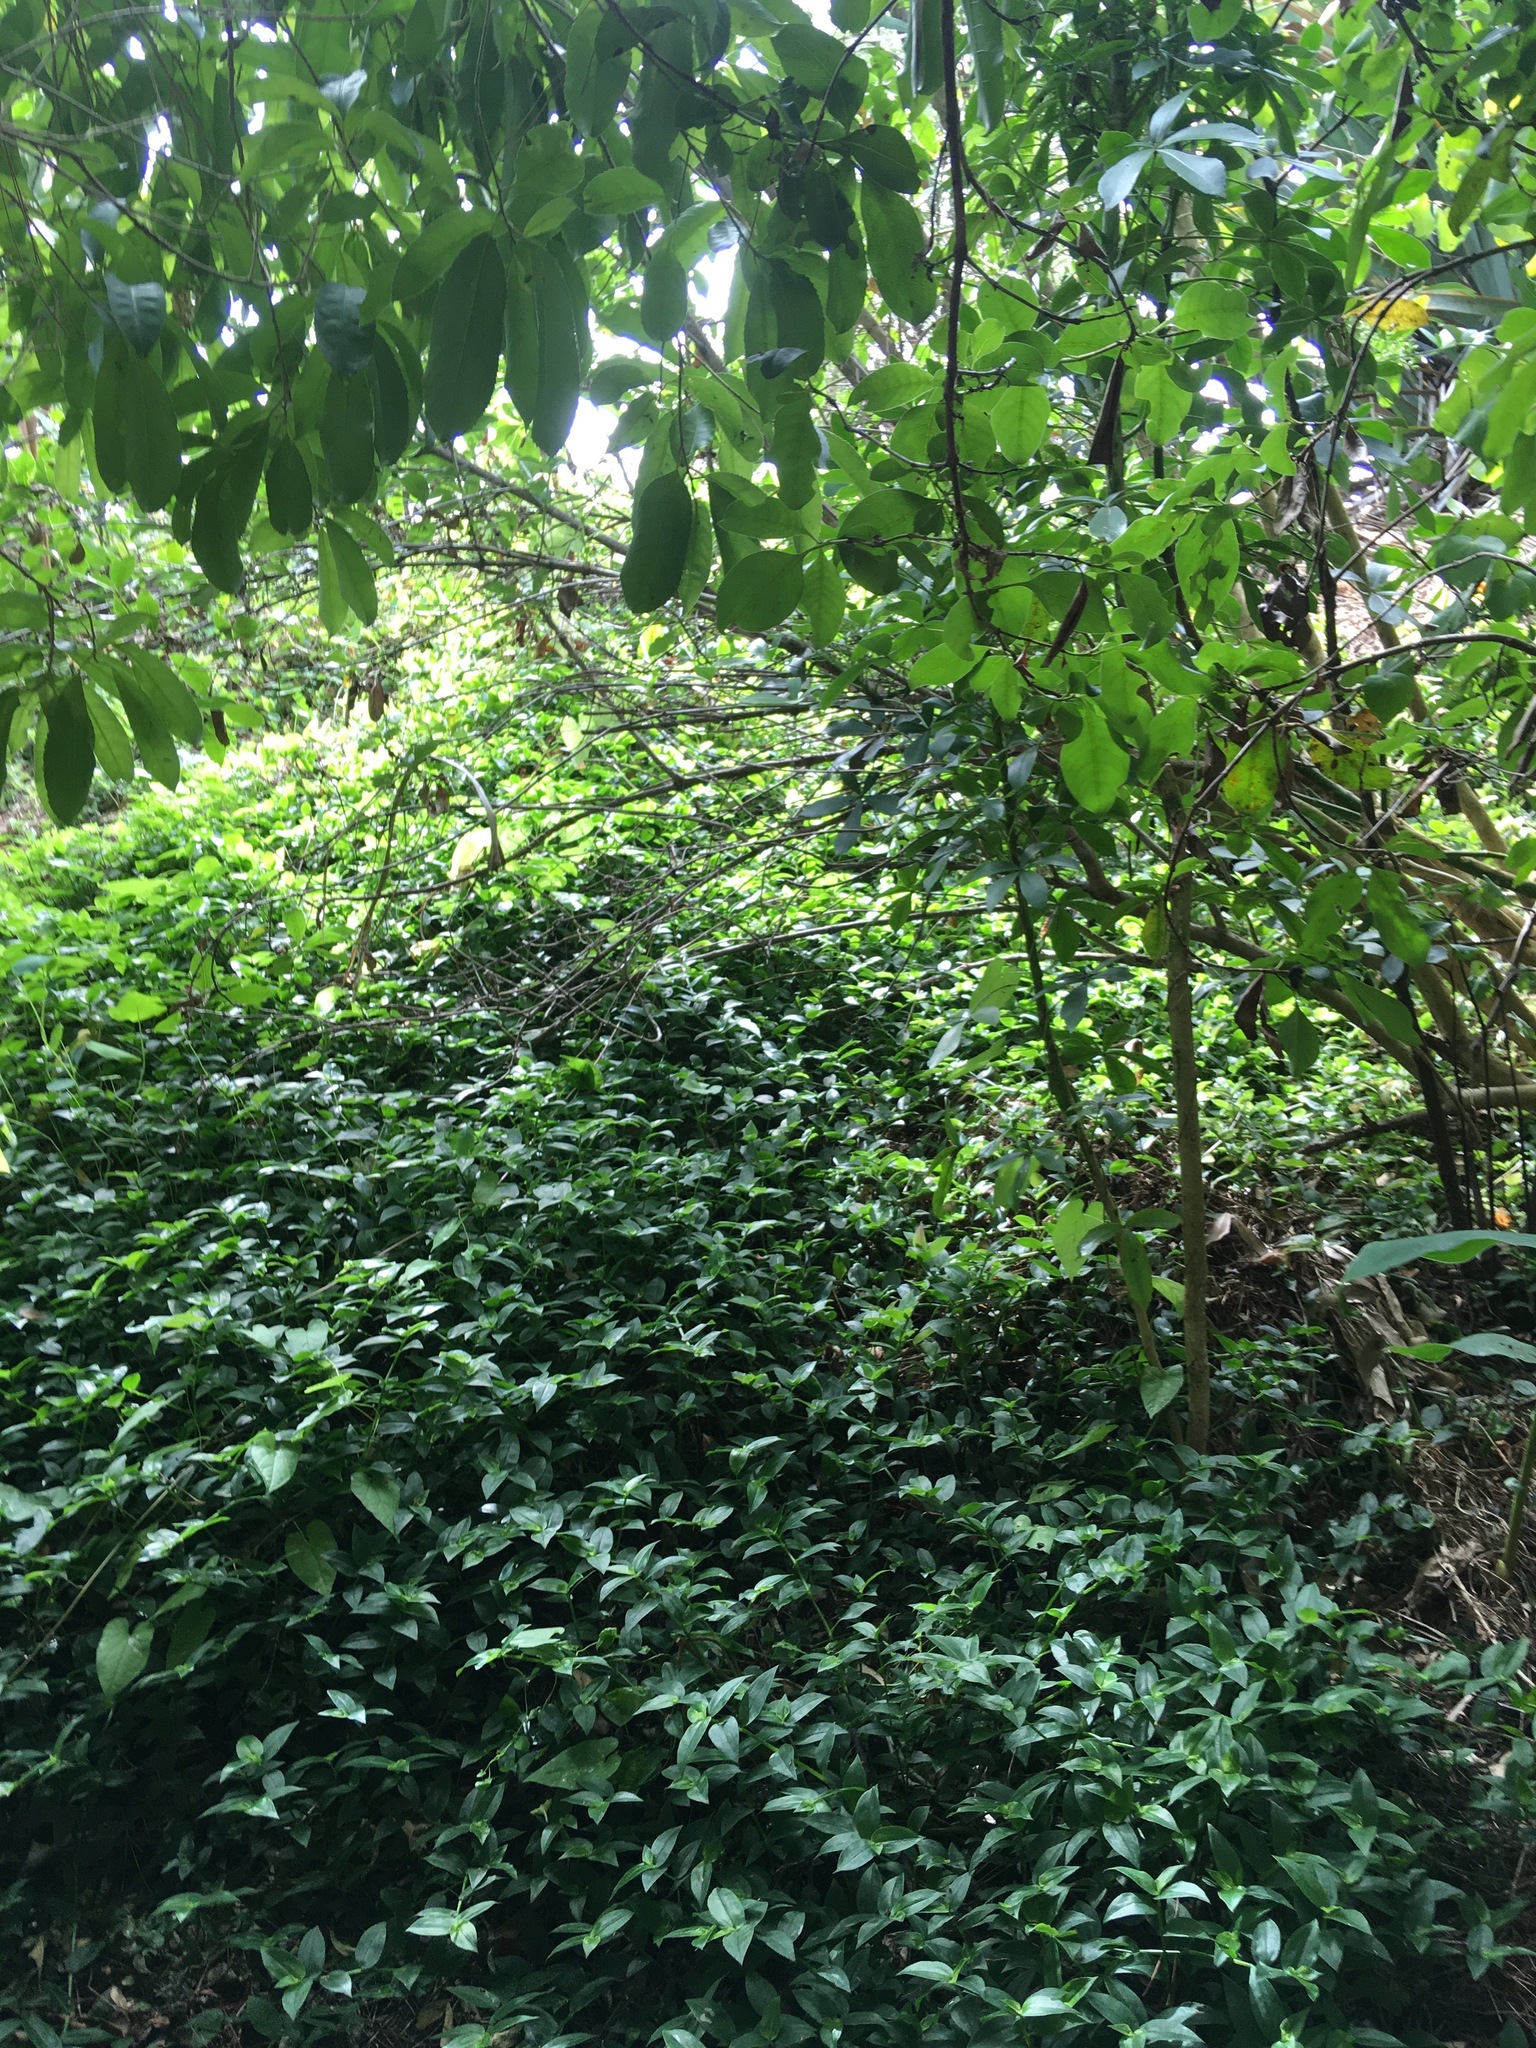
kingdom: Plantae
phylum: Tracheophyta
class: Liliopsida
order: Commelinales
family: Commelinaceae
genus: Tradescantia
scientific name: Tradescantia fluminensis
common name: Wandering-jew
